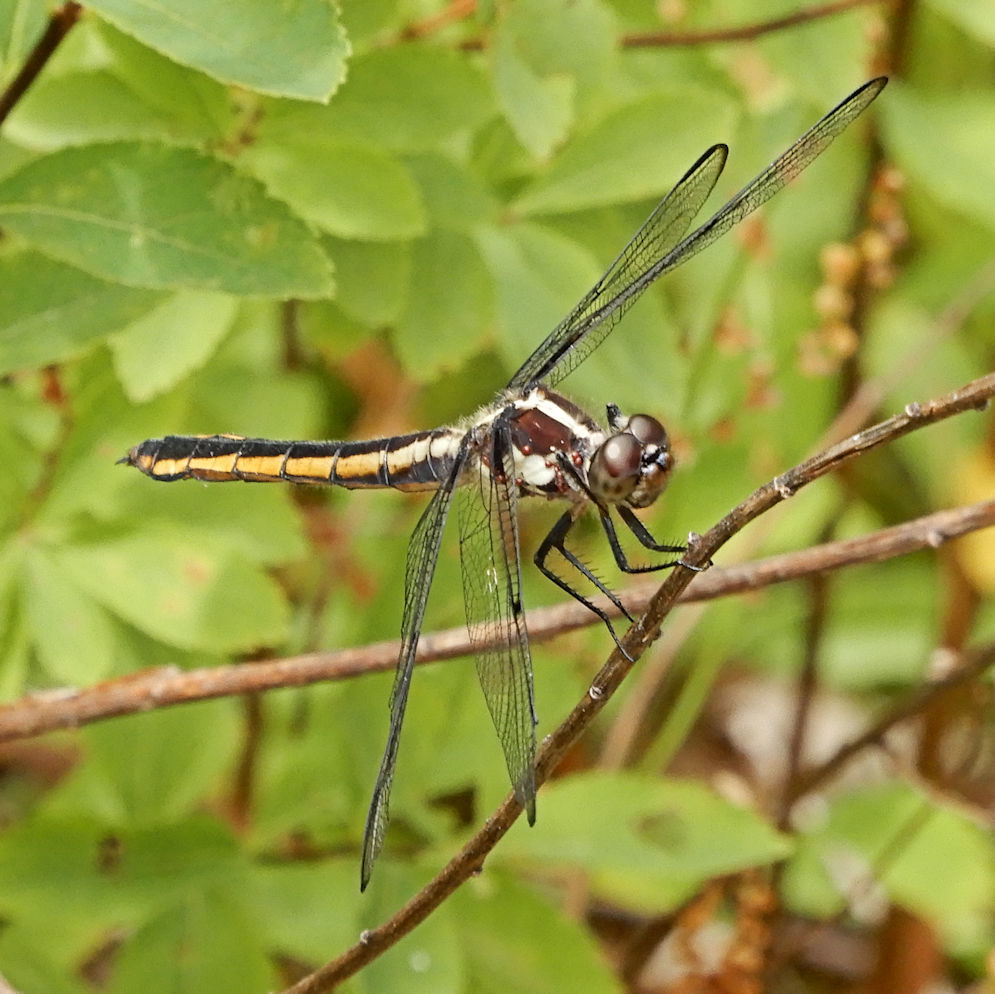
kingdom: Animalia
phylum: Arthropoda
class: Insecta
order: Odonata
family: Libellulidae
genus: Libellula
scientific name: Libellula incesta
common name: Slaty skimmer
